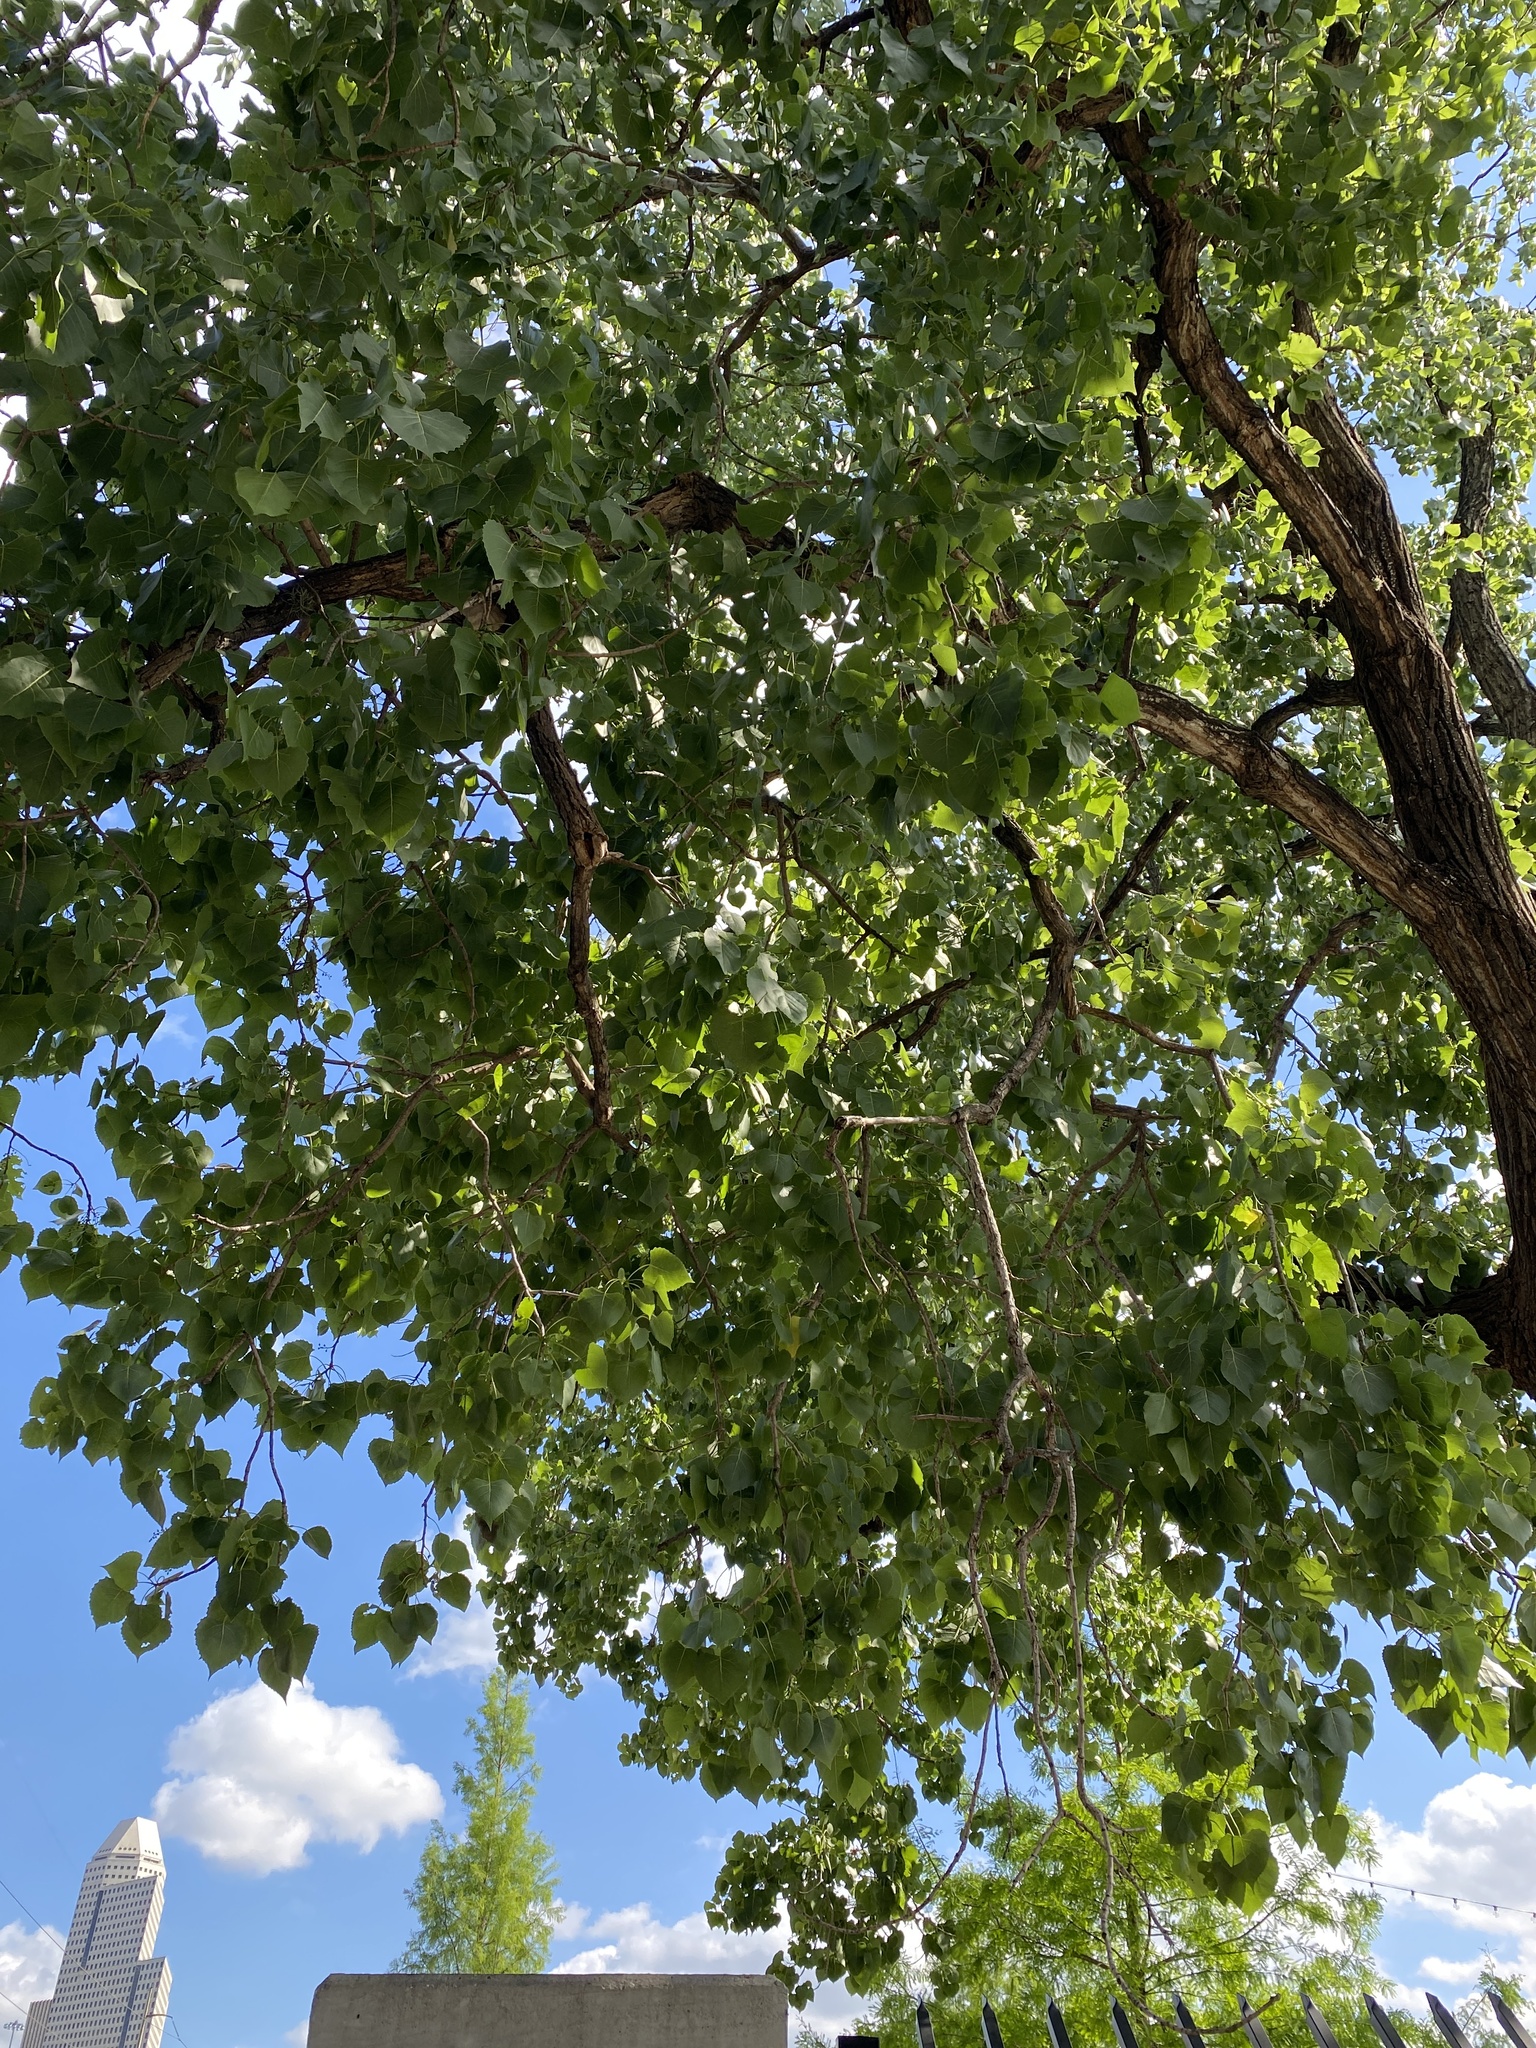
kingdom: Plantae
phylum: Tracheophyta
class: Magnoliopsida
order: Malpighiales
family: Salicaceae
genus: Populus
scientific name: Populus deltoides
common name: Eastern cottonwood
